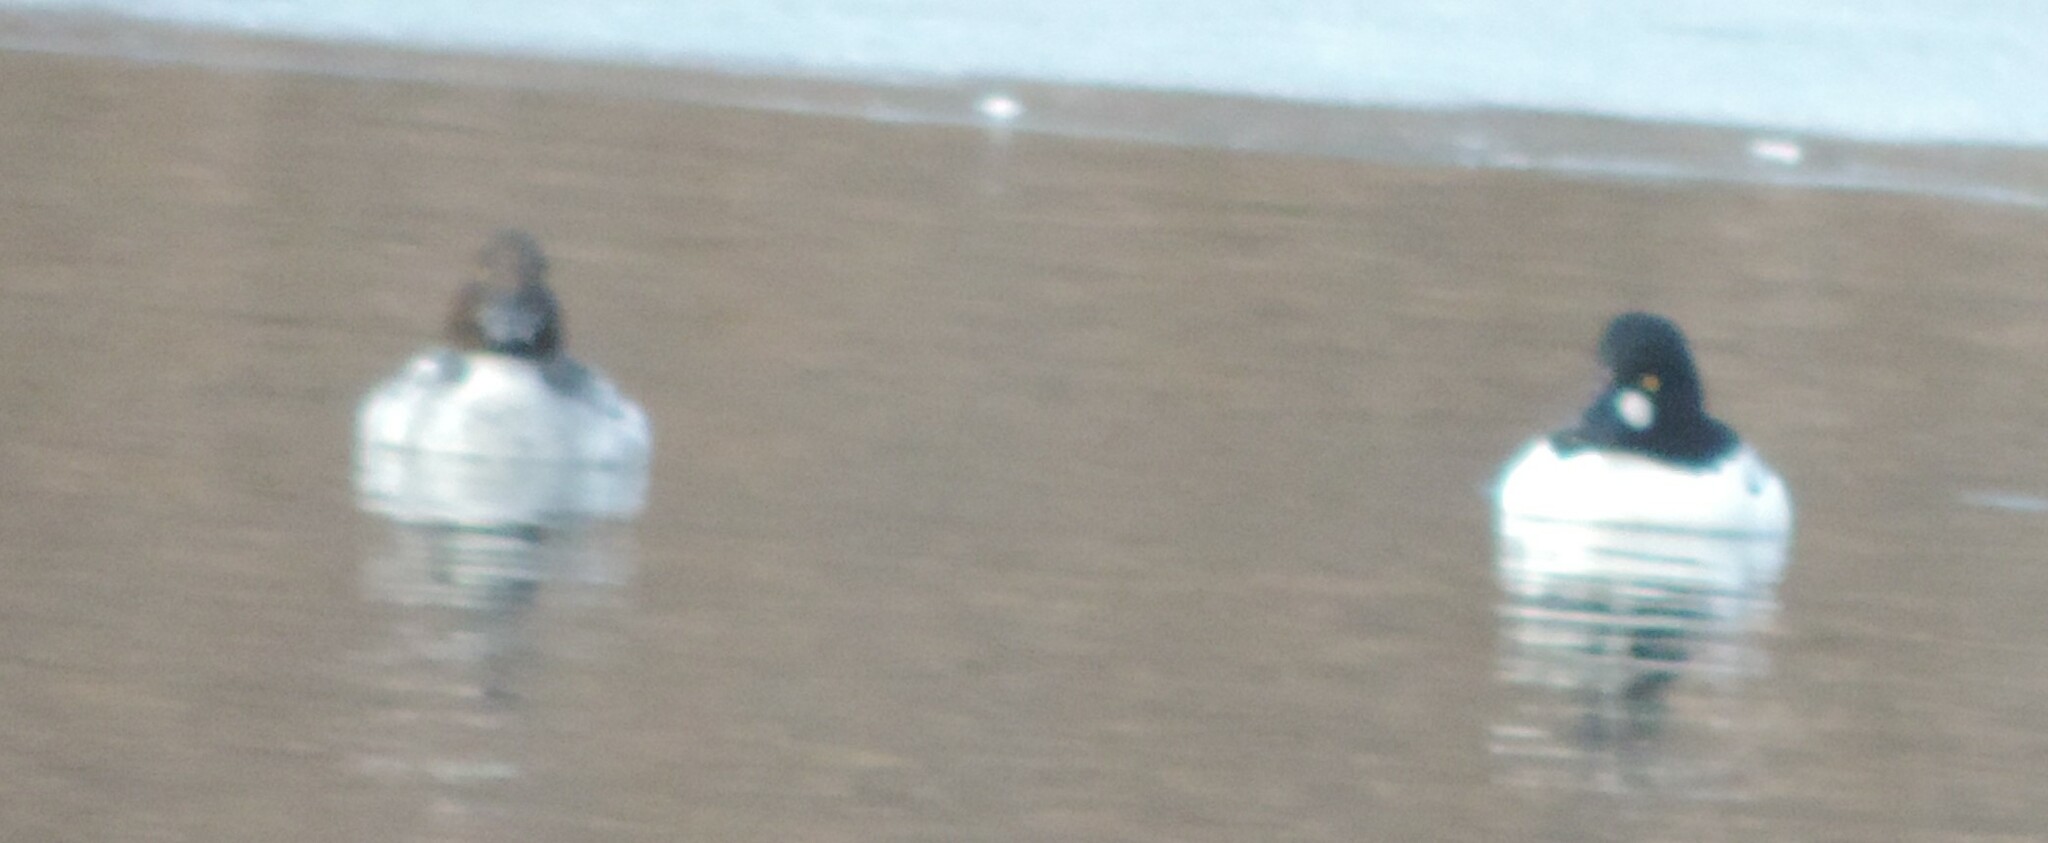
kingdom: Animalia
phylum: Chordata
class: Aves
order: Anseriformes
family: Anatidae
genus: Bucephala
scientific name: Bucephala clangula
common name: Common goldeneye
